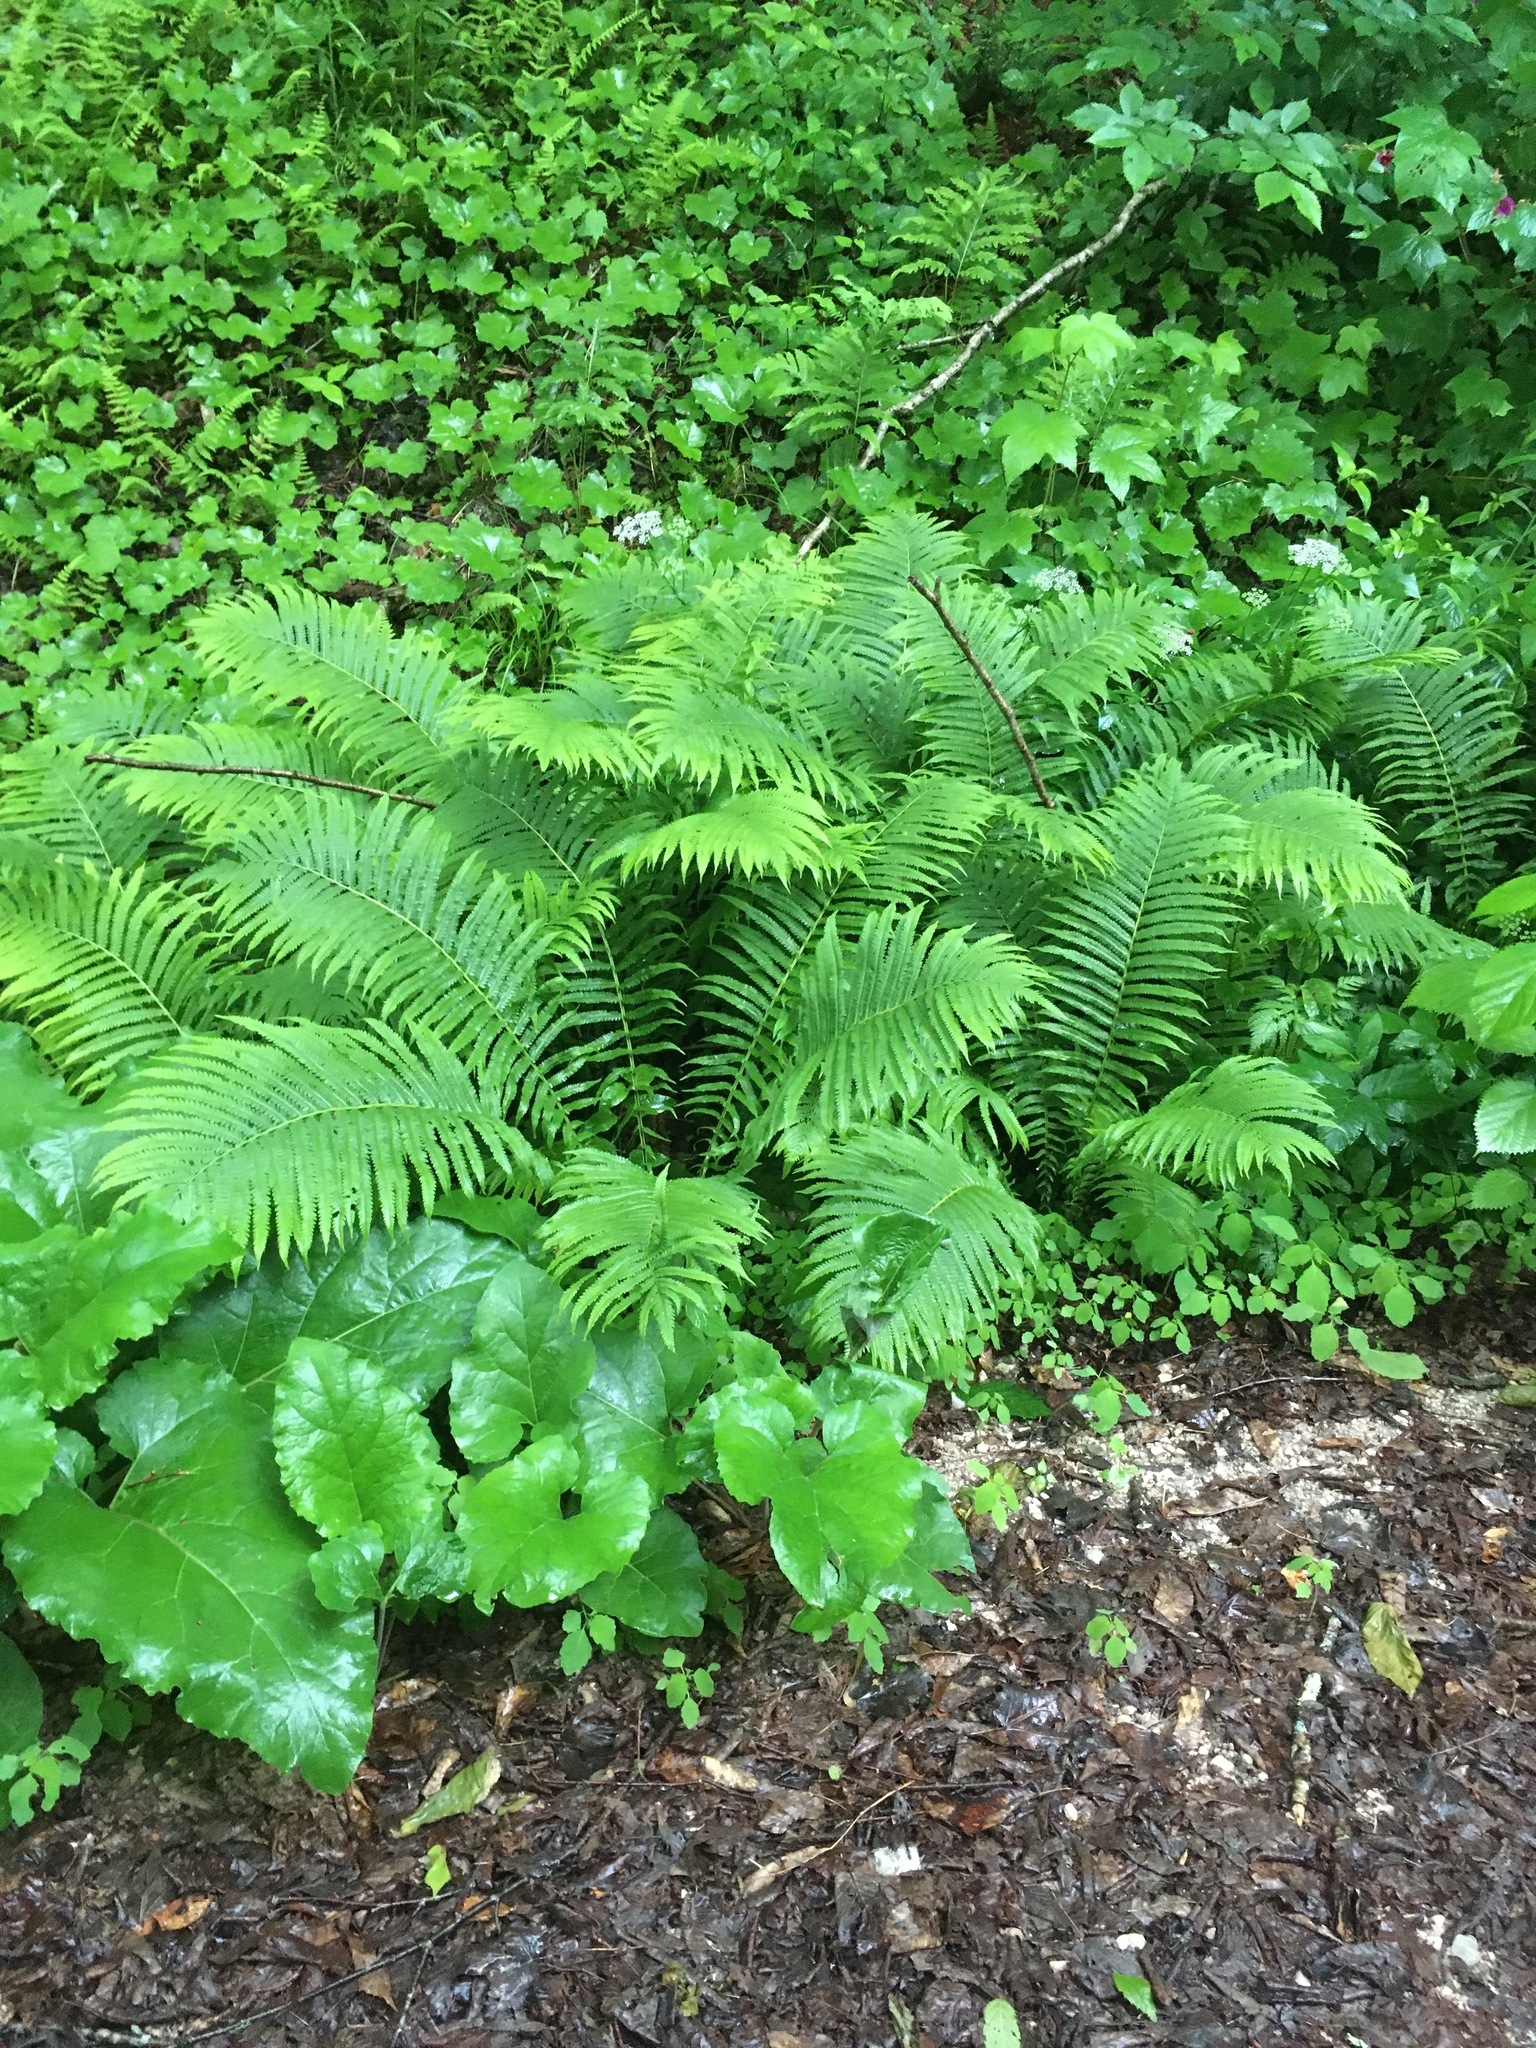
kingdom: Plantae
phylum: Tracheophyta
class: Polypodiopsida
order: Polypodiales
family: Onocleaceae
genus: Matteuccia
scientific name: Matteuccia struthiopteris
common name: Ostrich fern
